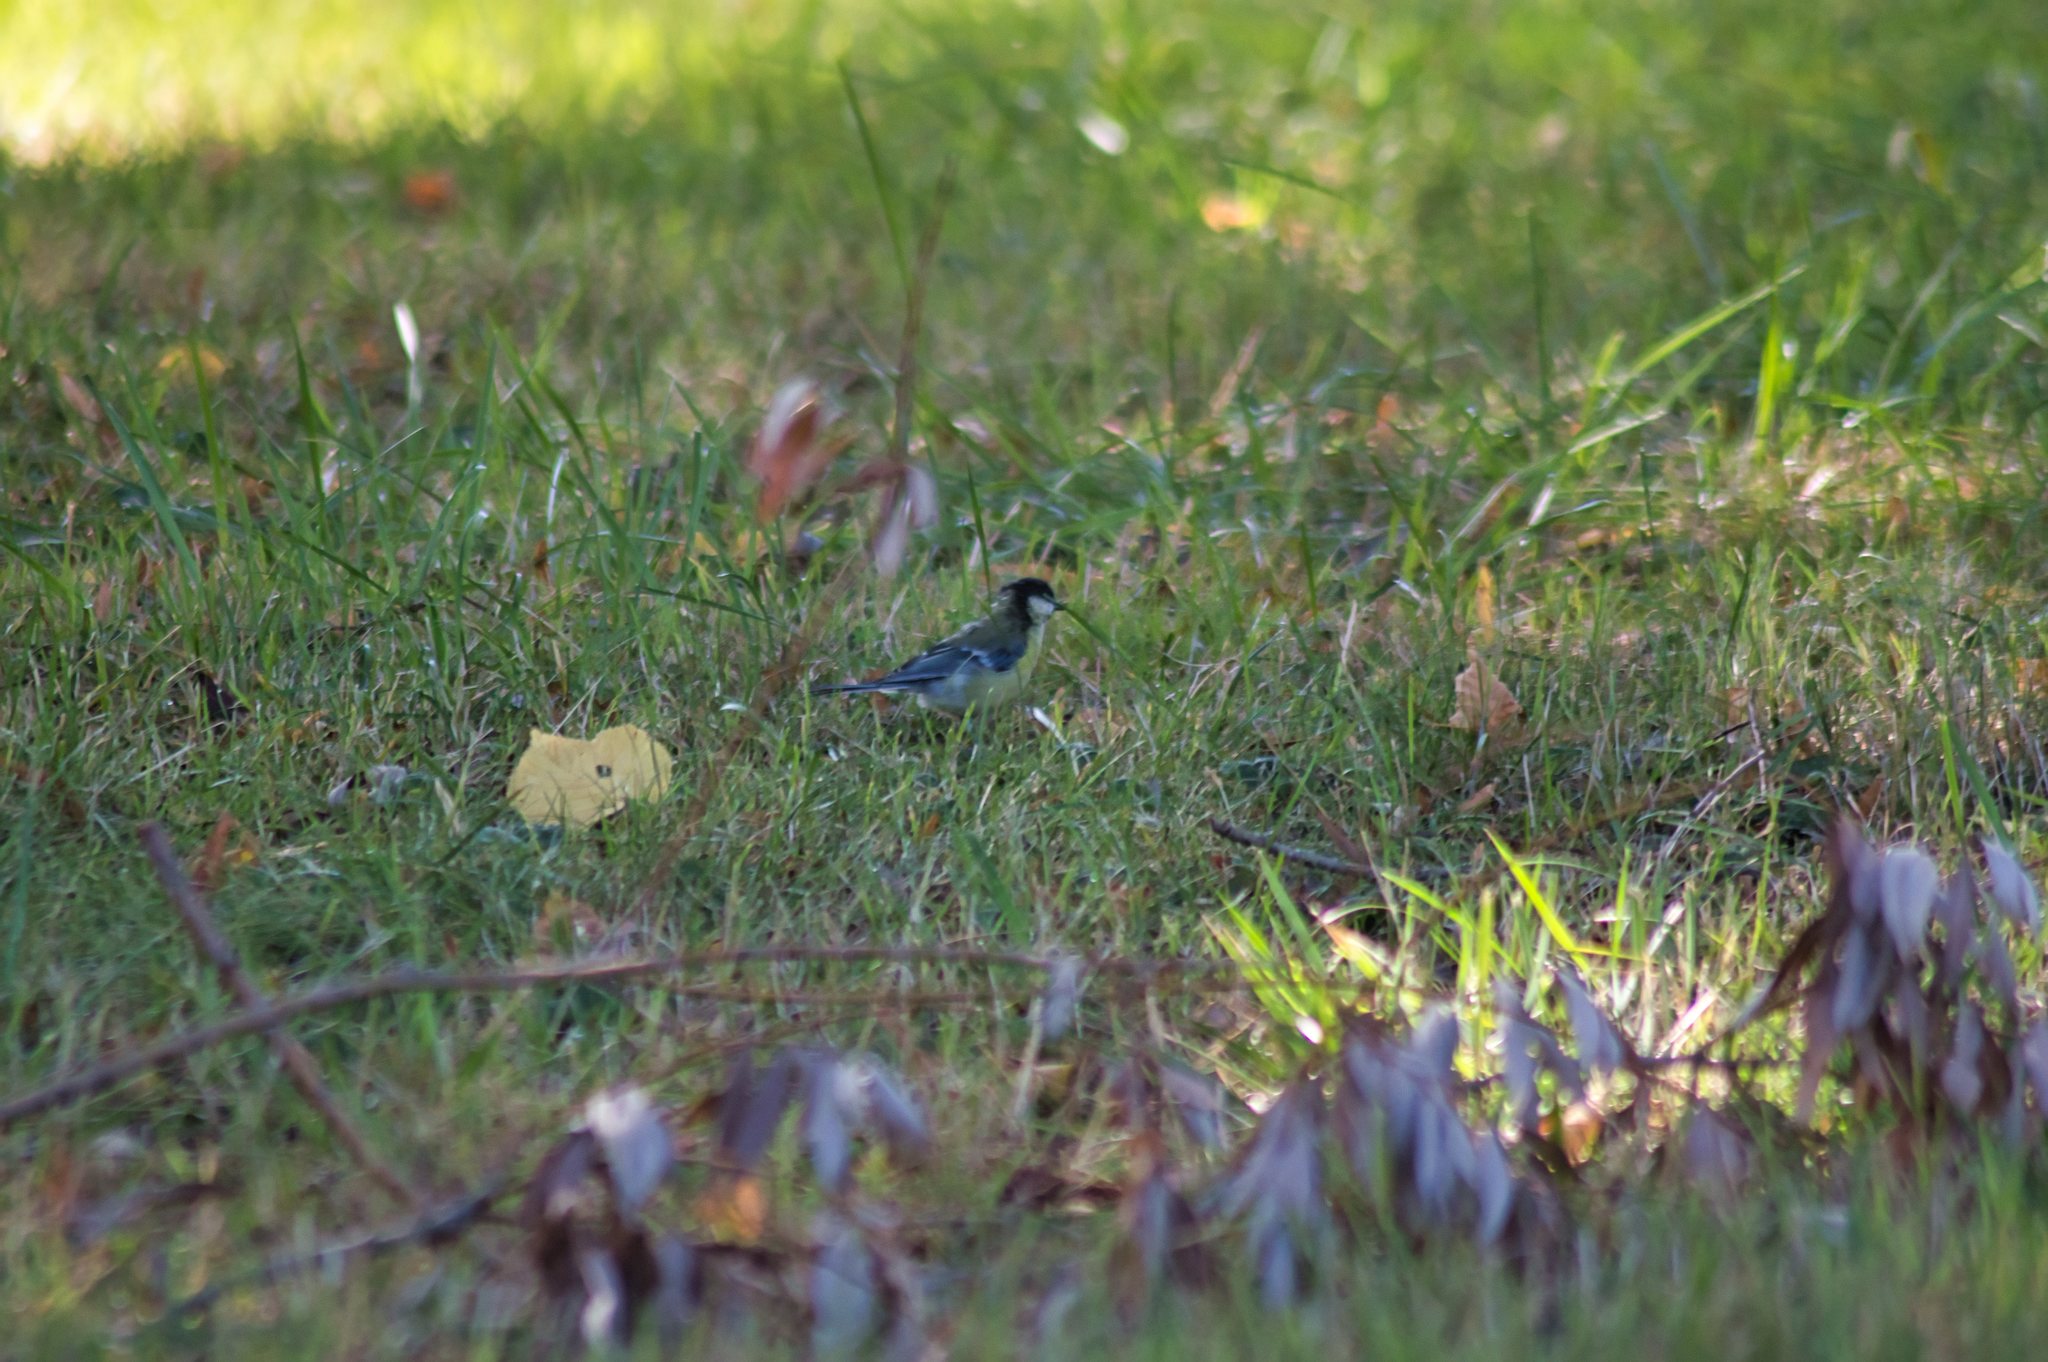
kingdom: Animalia
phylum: Chordata
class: Aves
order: Passeriformes
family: Paridae
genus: Parus
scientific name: Parus major
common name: Great tit
